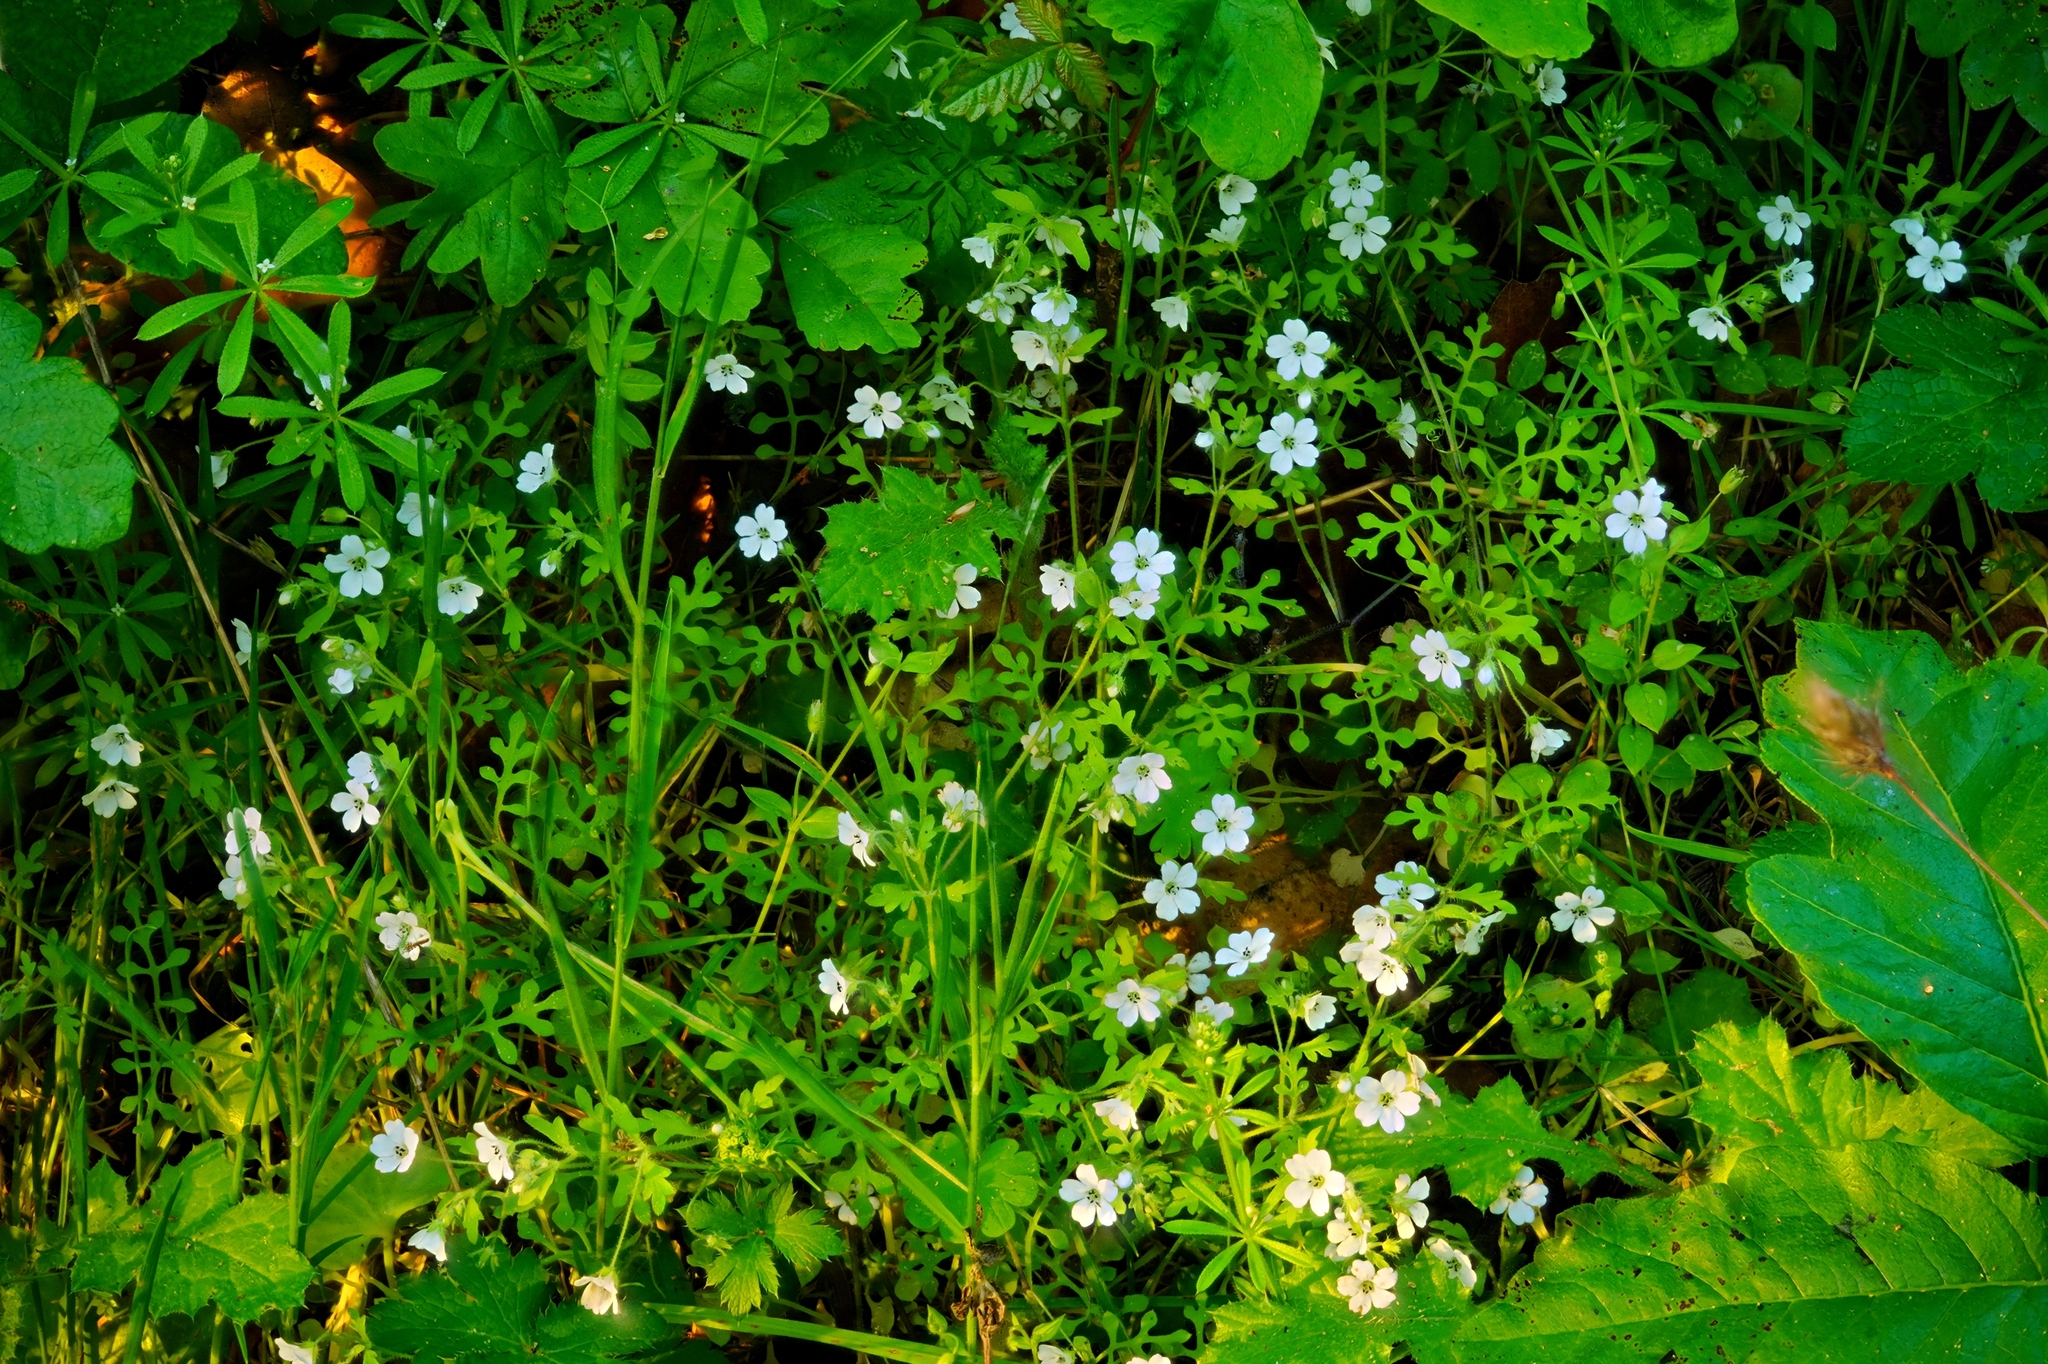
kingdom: Plantae
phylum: Tracheophyta
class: Magnoliopsida
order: Boraginales
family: Hydrophyllaceae
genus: Nemophila
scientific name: Nemophila heterophylla
